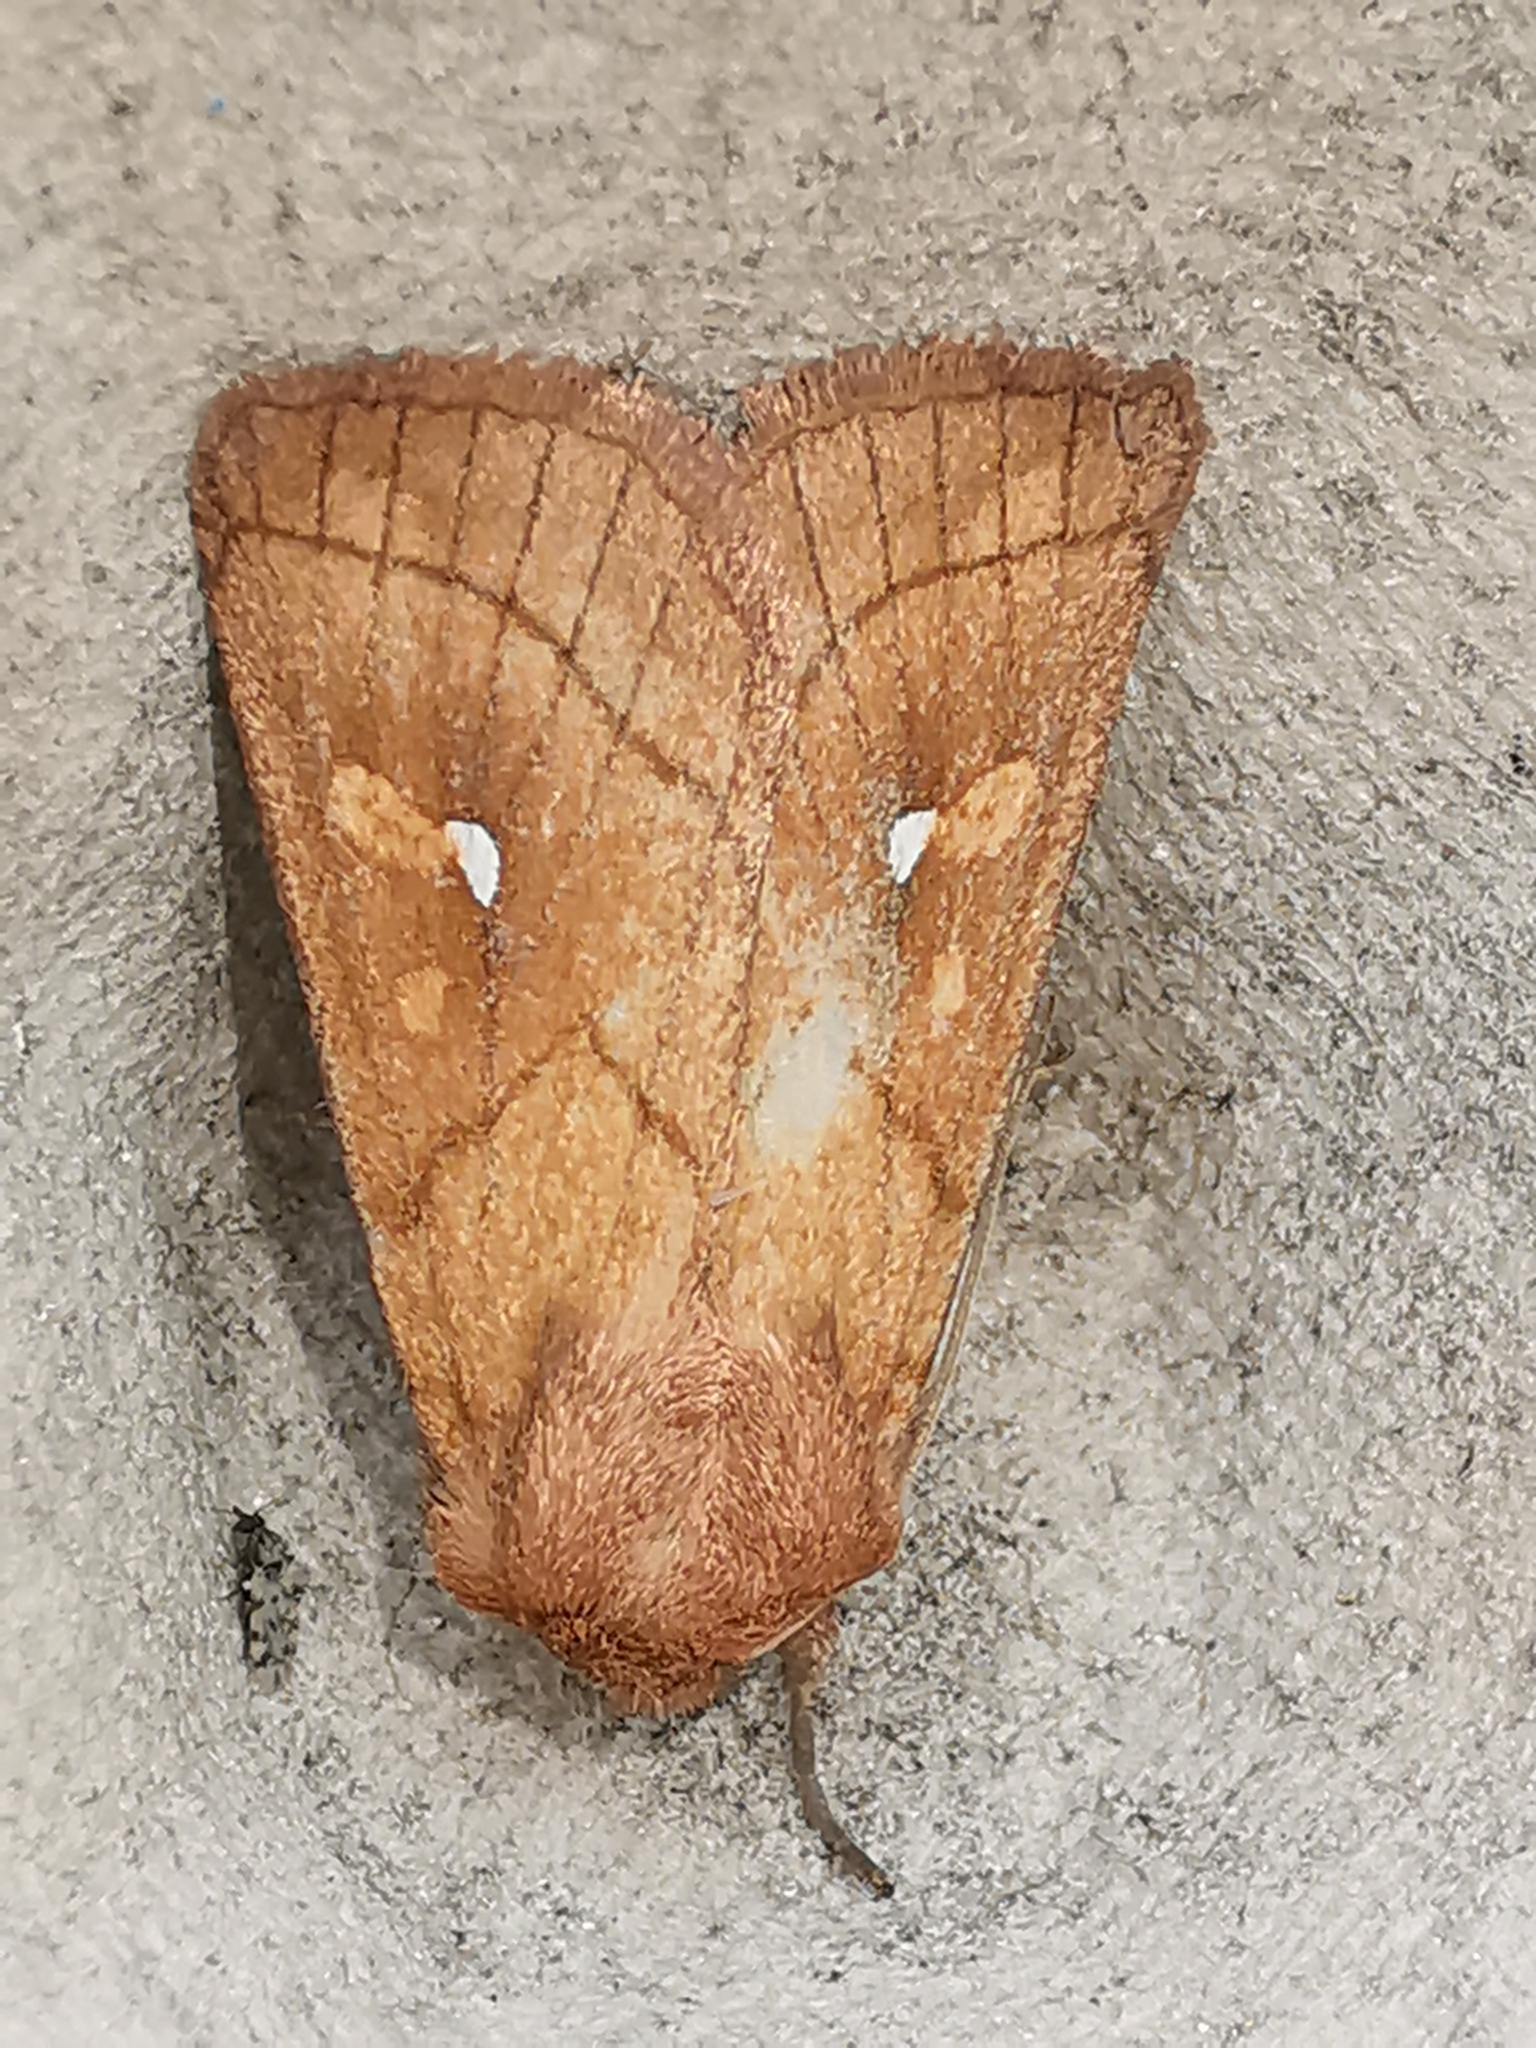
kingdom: Animalia
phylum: Arthropoda
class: Insecta
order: Lepidoptera
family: Noctuidae
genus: Mythimna
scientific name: Mythimna conigera
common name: Brown-line bright-eye
